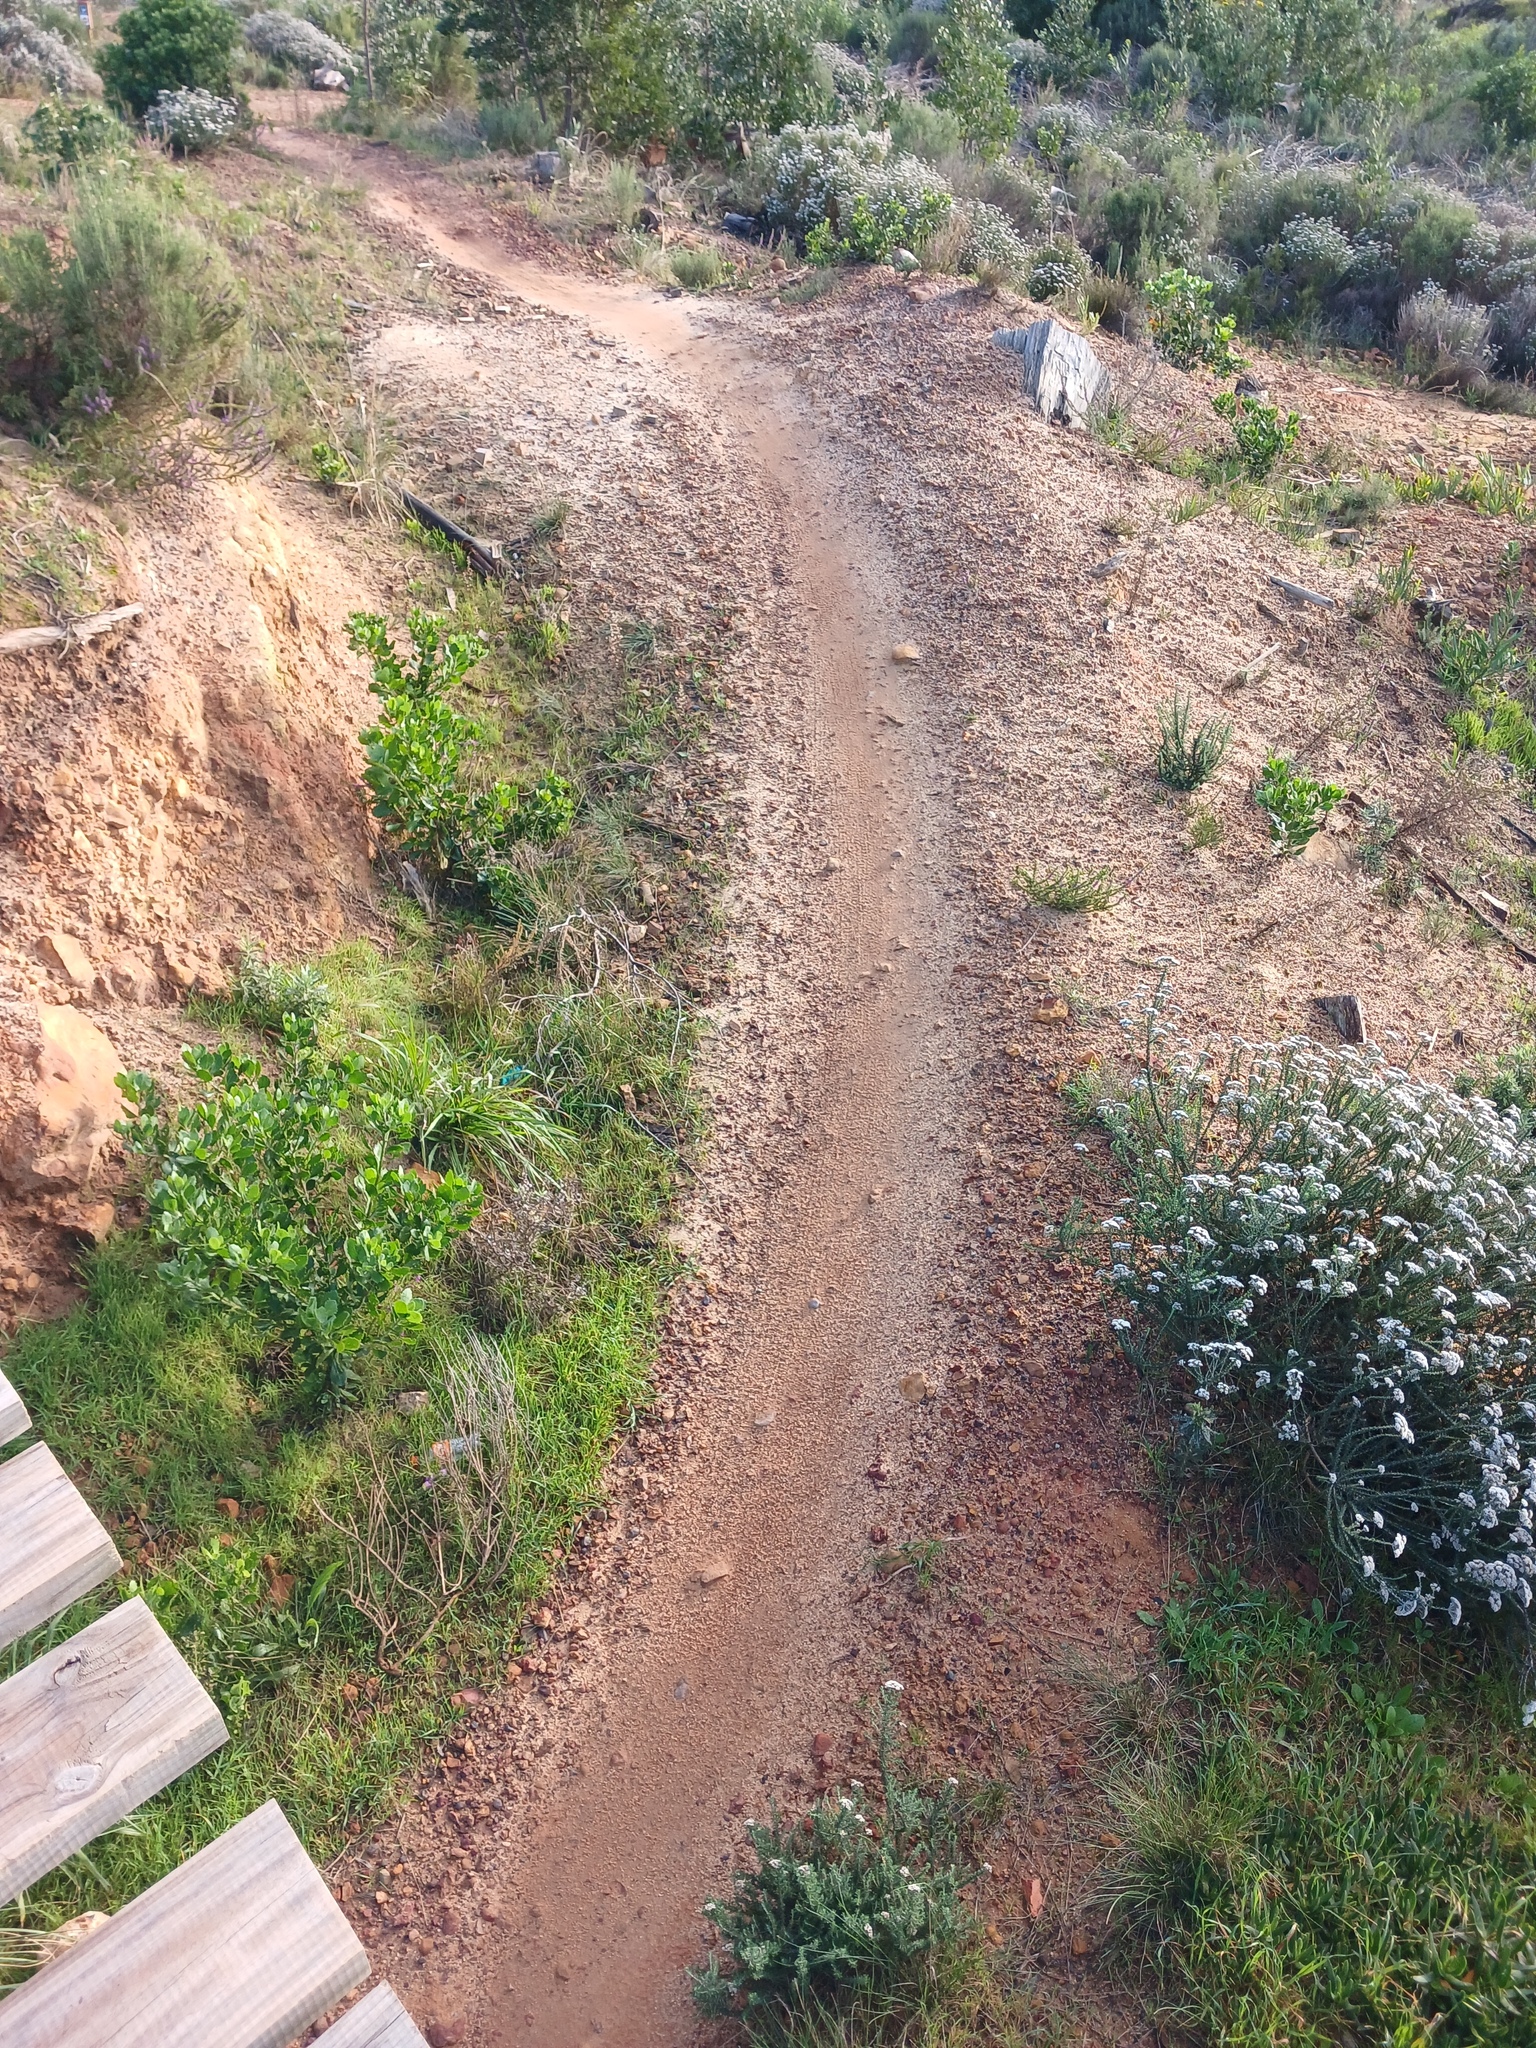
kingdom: Plantae
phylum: Tracheophyta
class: Magnoliopsida
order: Asterales
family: Asteraceae
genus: Metalasia
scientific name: Metalasia densa
